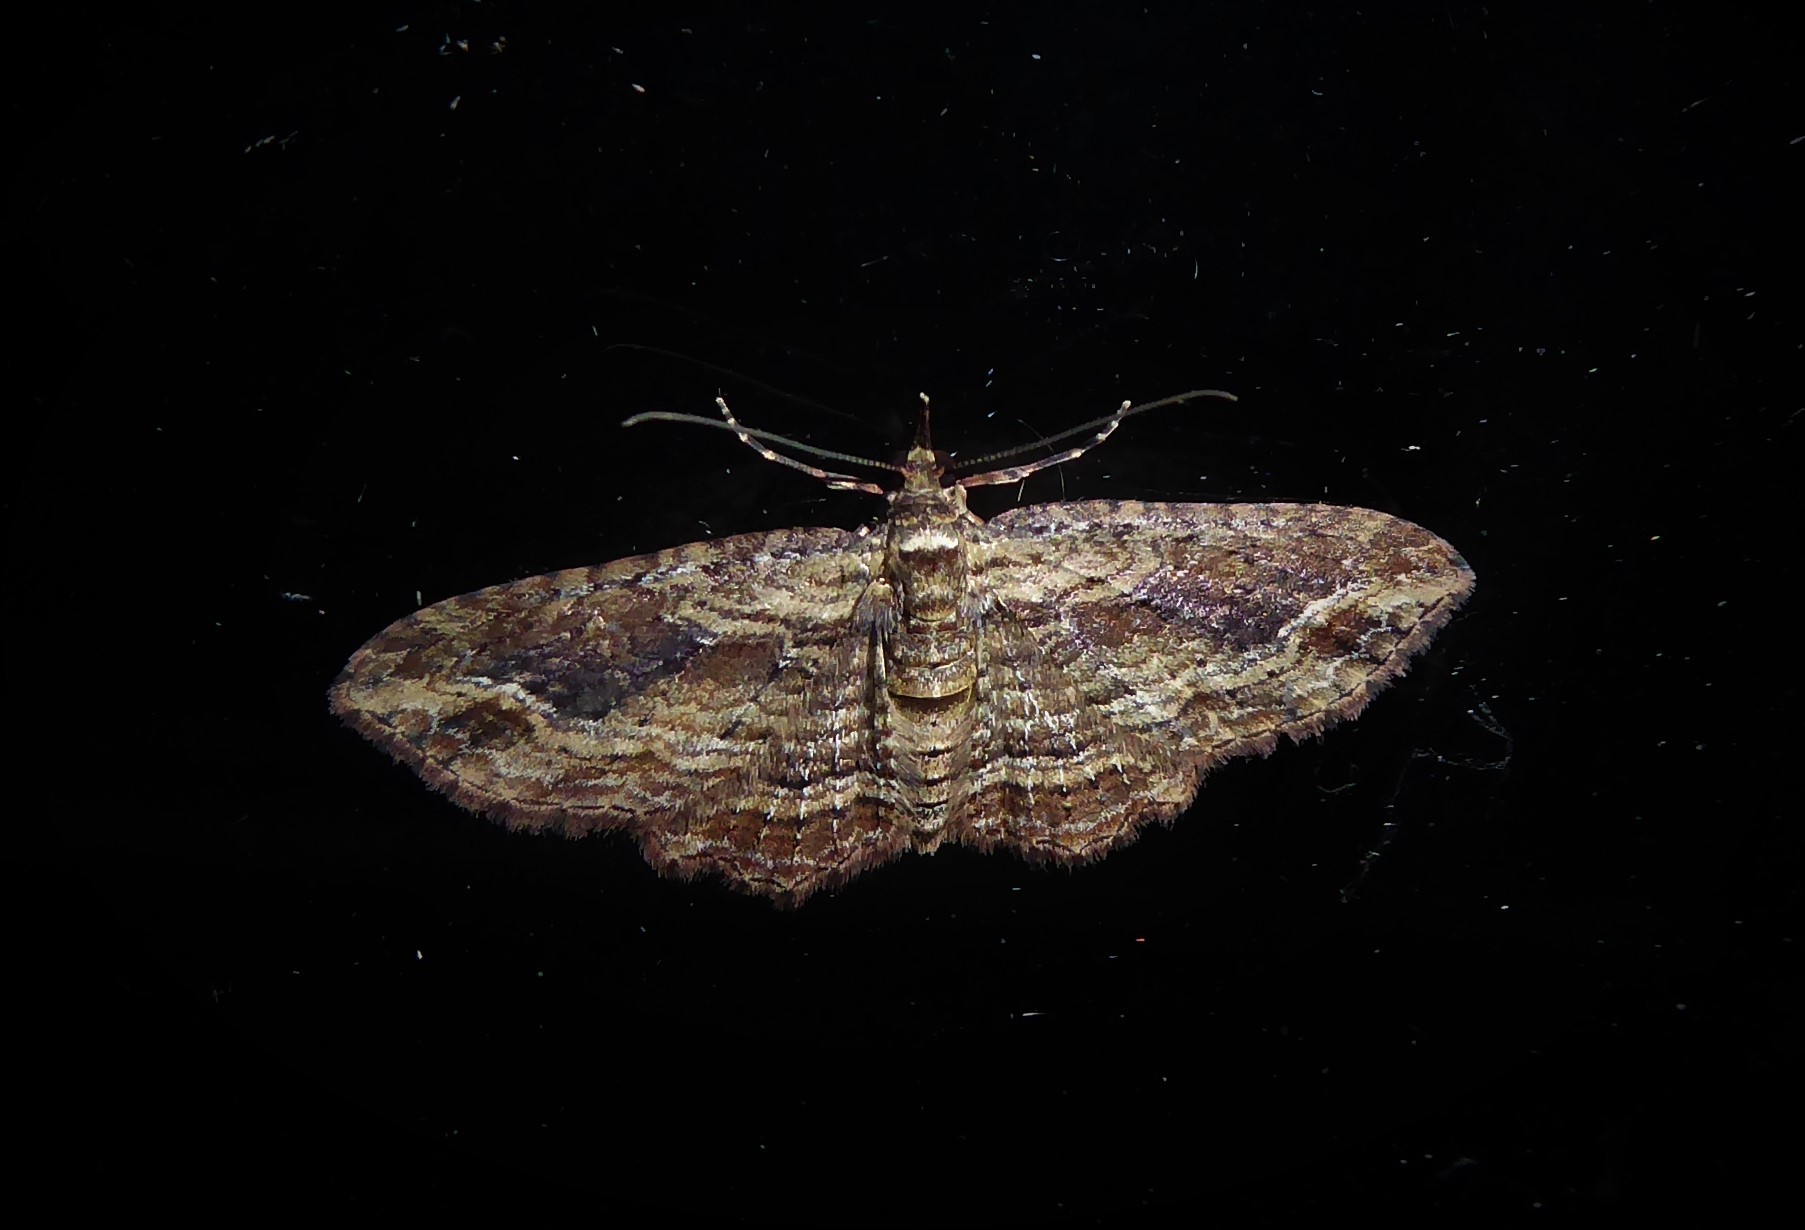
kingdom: Animalia
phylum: Arthropoda
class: Insecta
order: Lepidoptera
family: Geometridae
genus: Chloroclystis
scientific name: Chloroclystis filata
